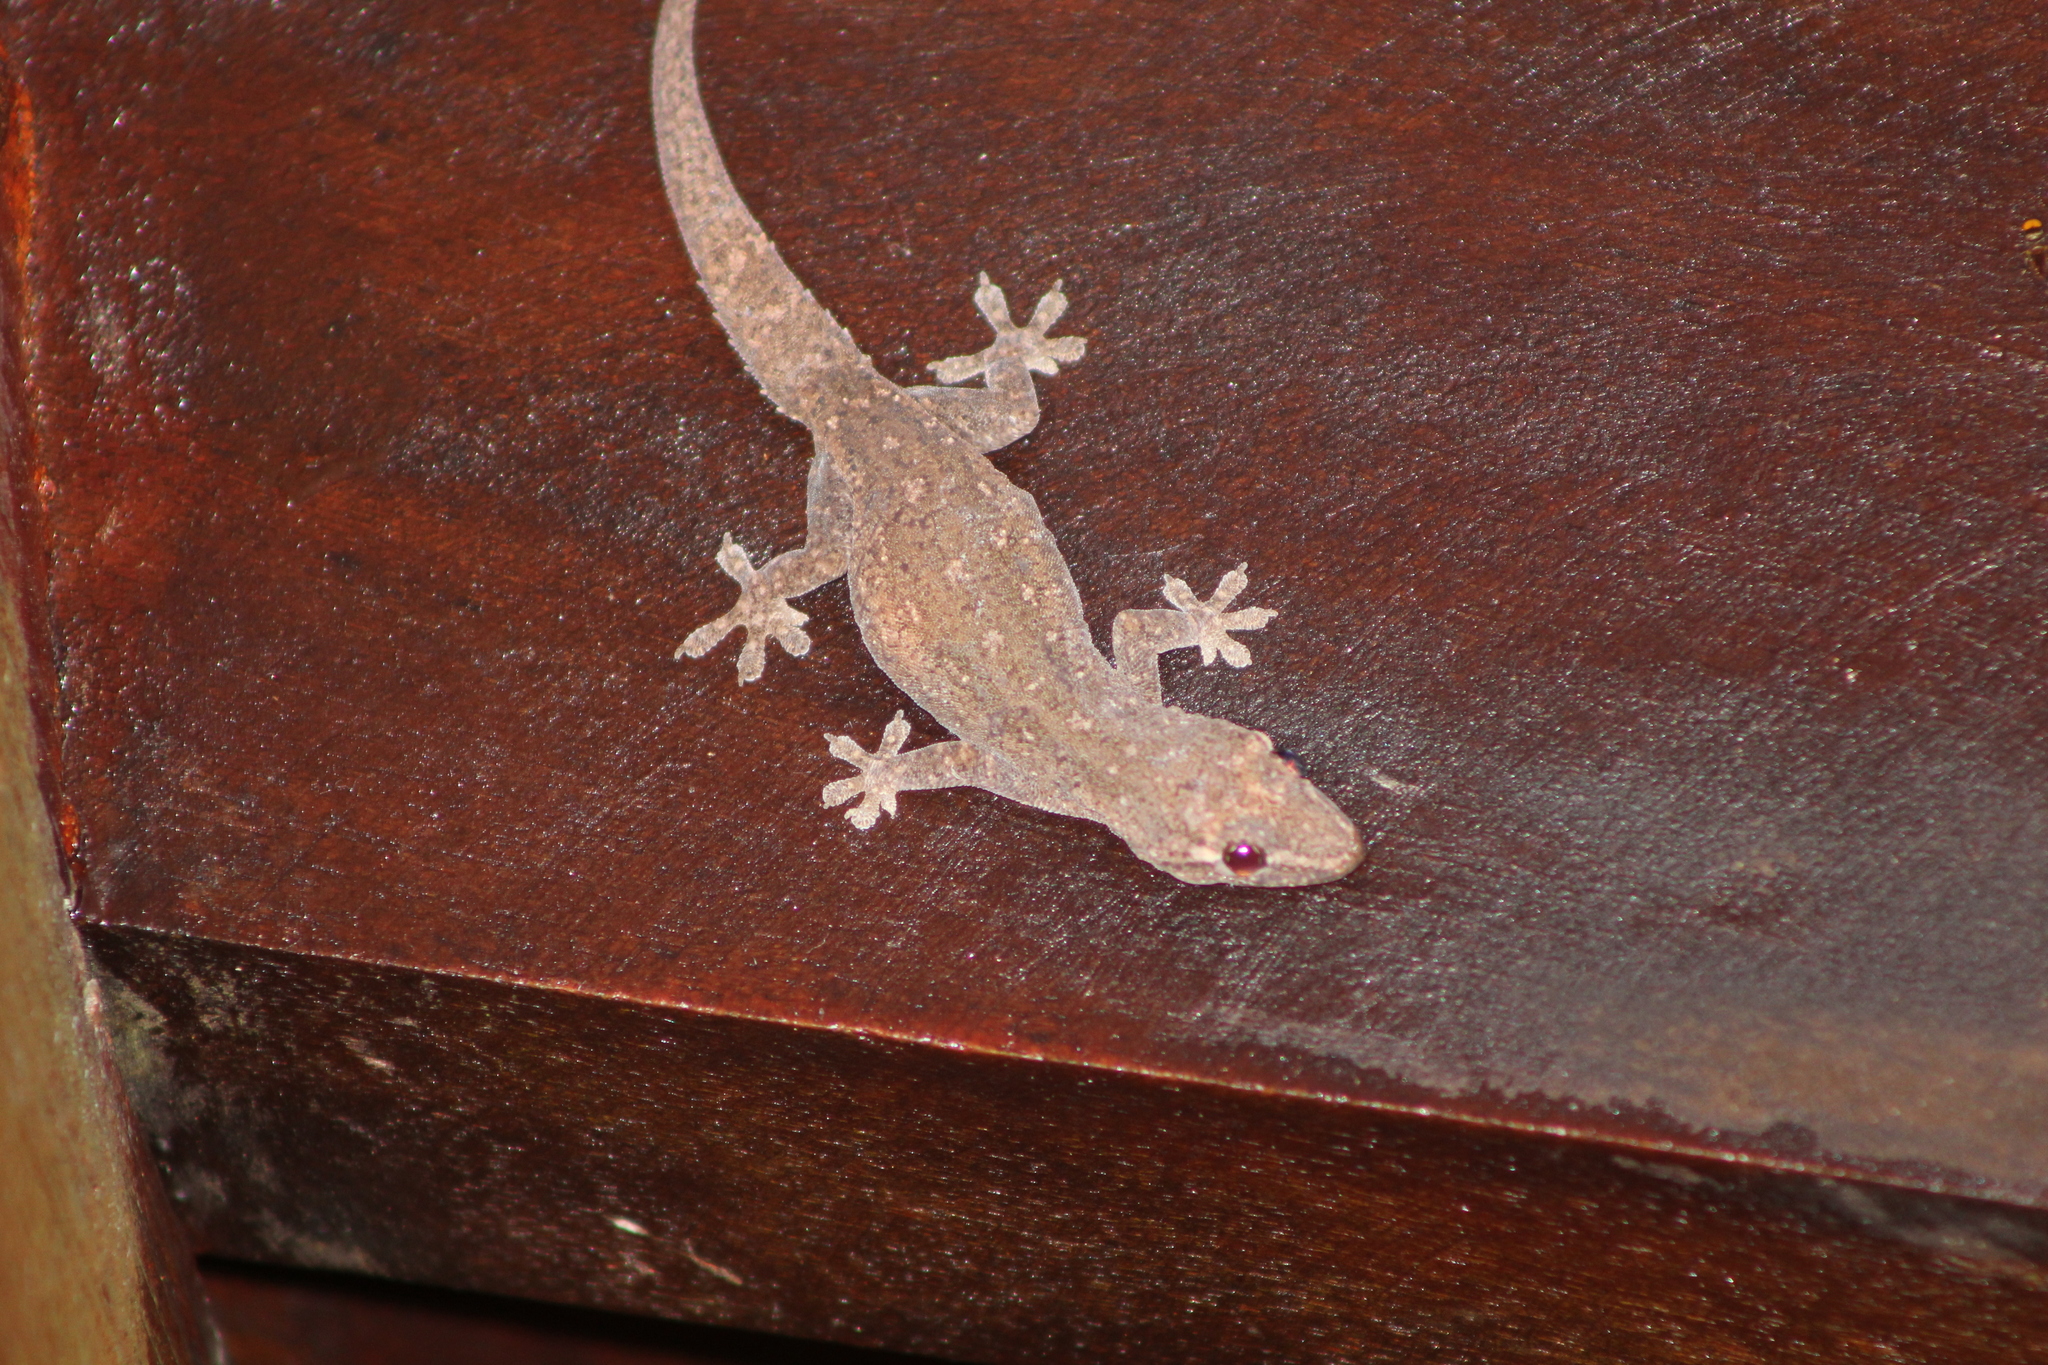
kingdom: Animalia
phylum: Chordata
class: Squamata
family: Gekkonidae
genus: Hemidactylus
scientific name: Hemidactylus frenatus
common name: Common house gecko
